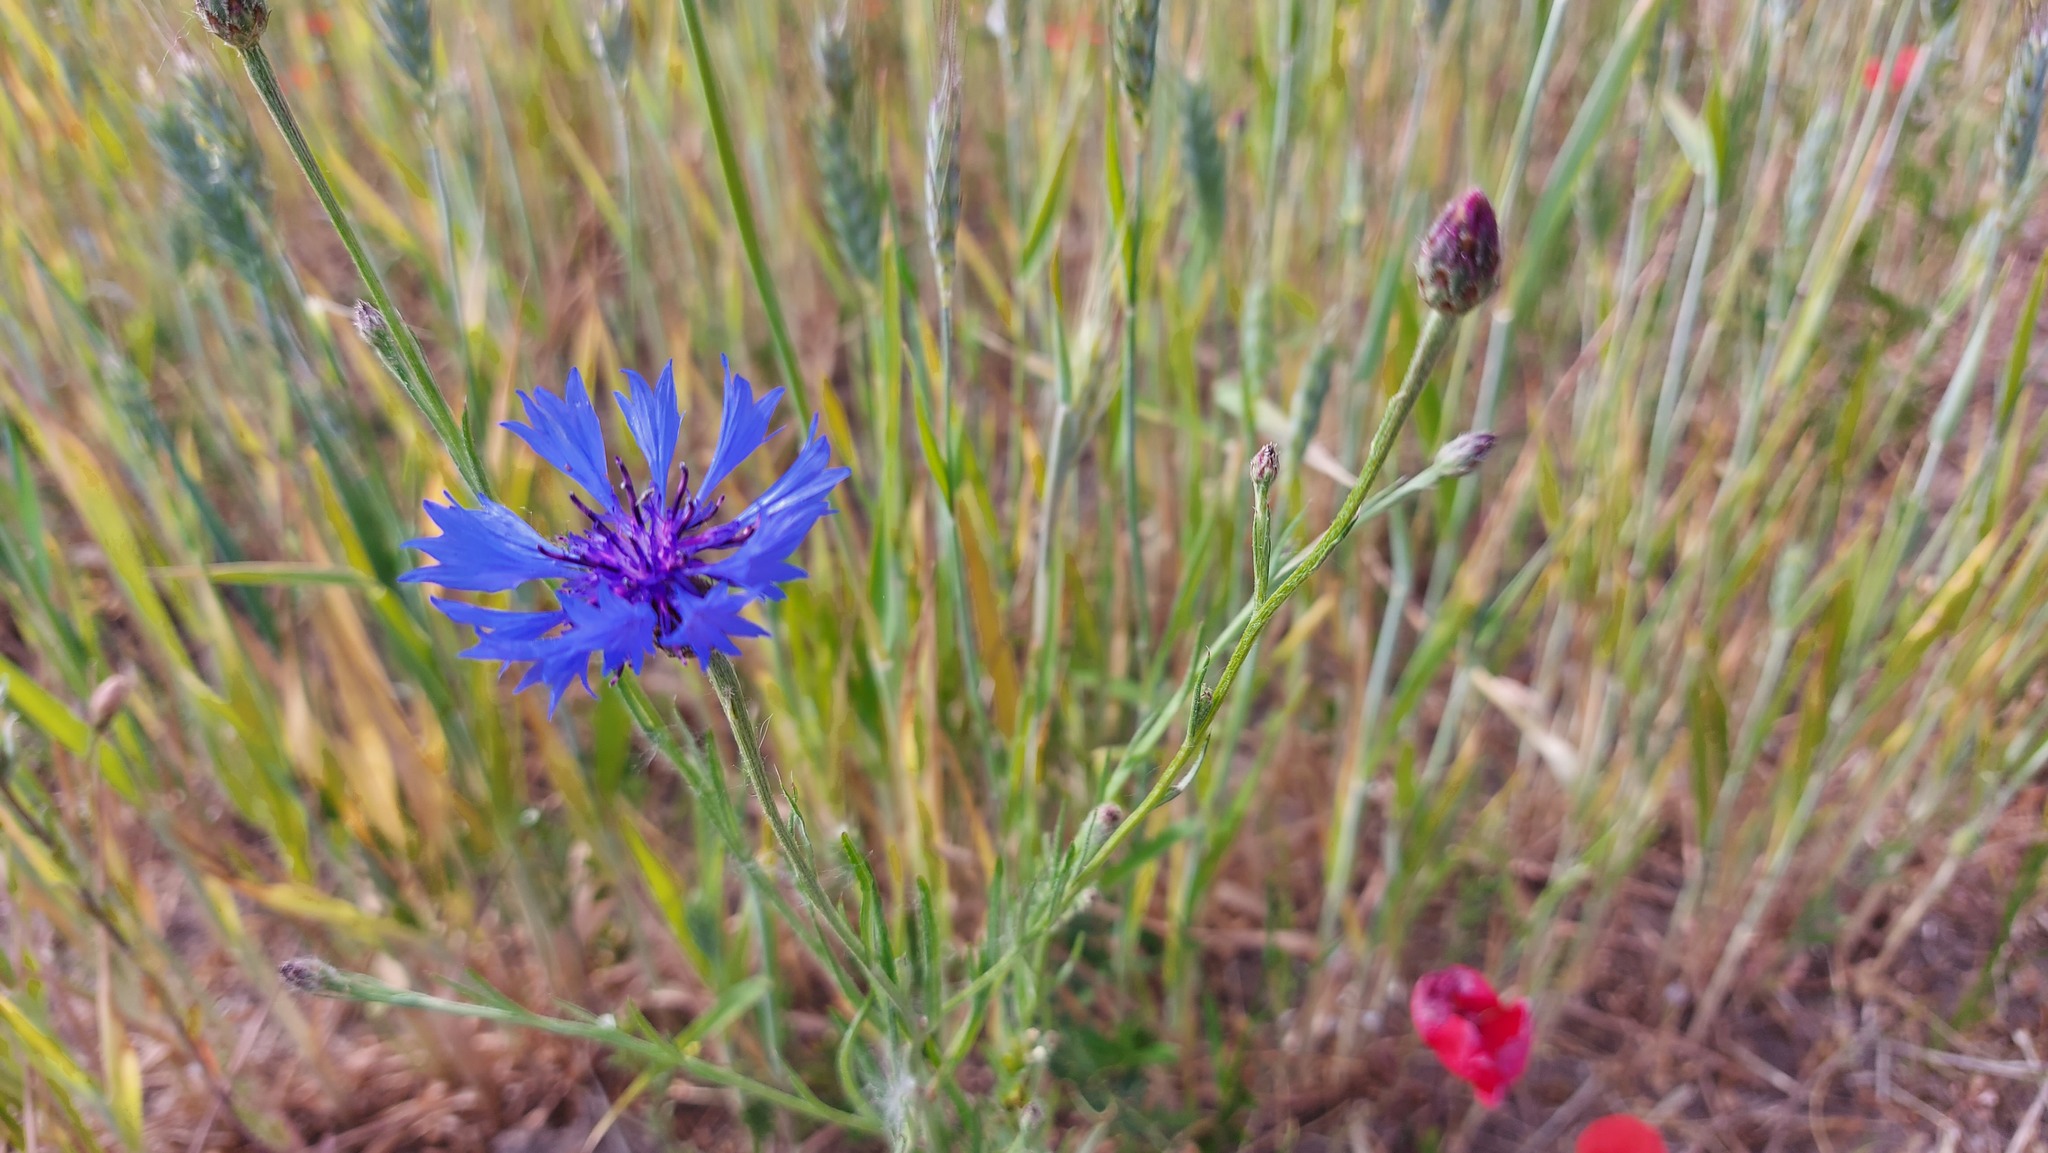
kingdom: Plantae
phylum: Tracheophyta
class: Magnoliopsida
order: Asterales
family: Asteraceae
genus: Centaurea
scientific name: Centaurea cyanus
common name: Cornflower
